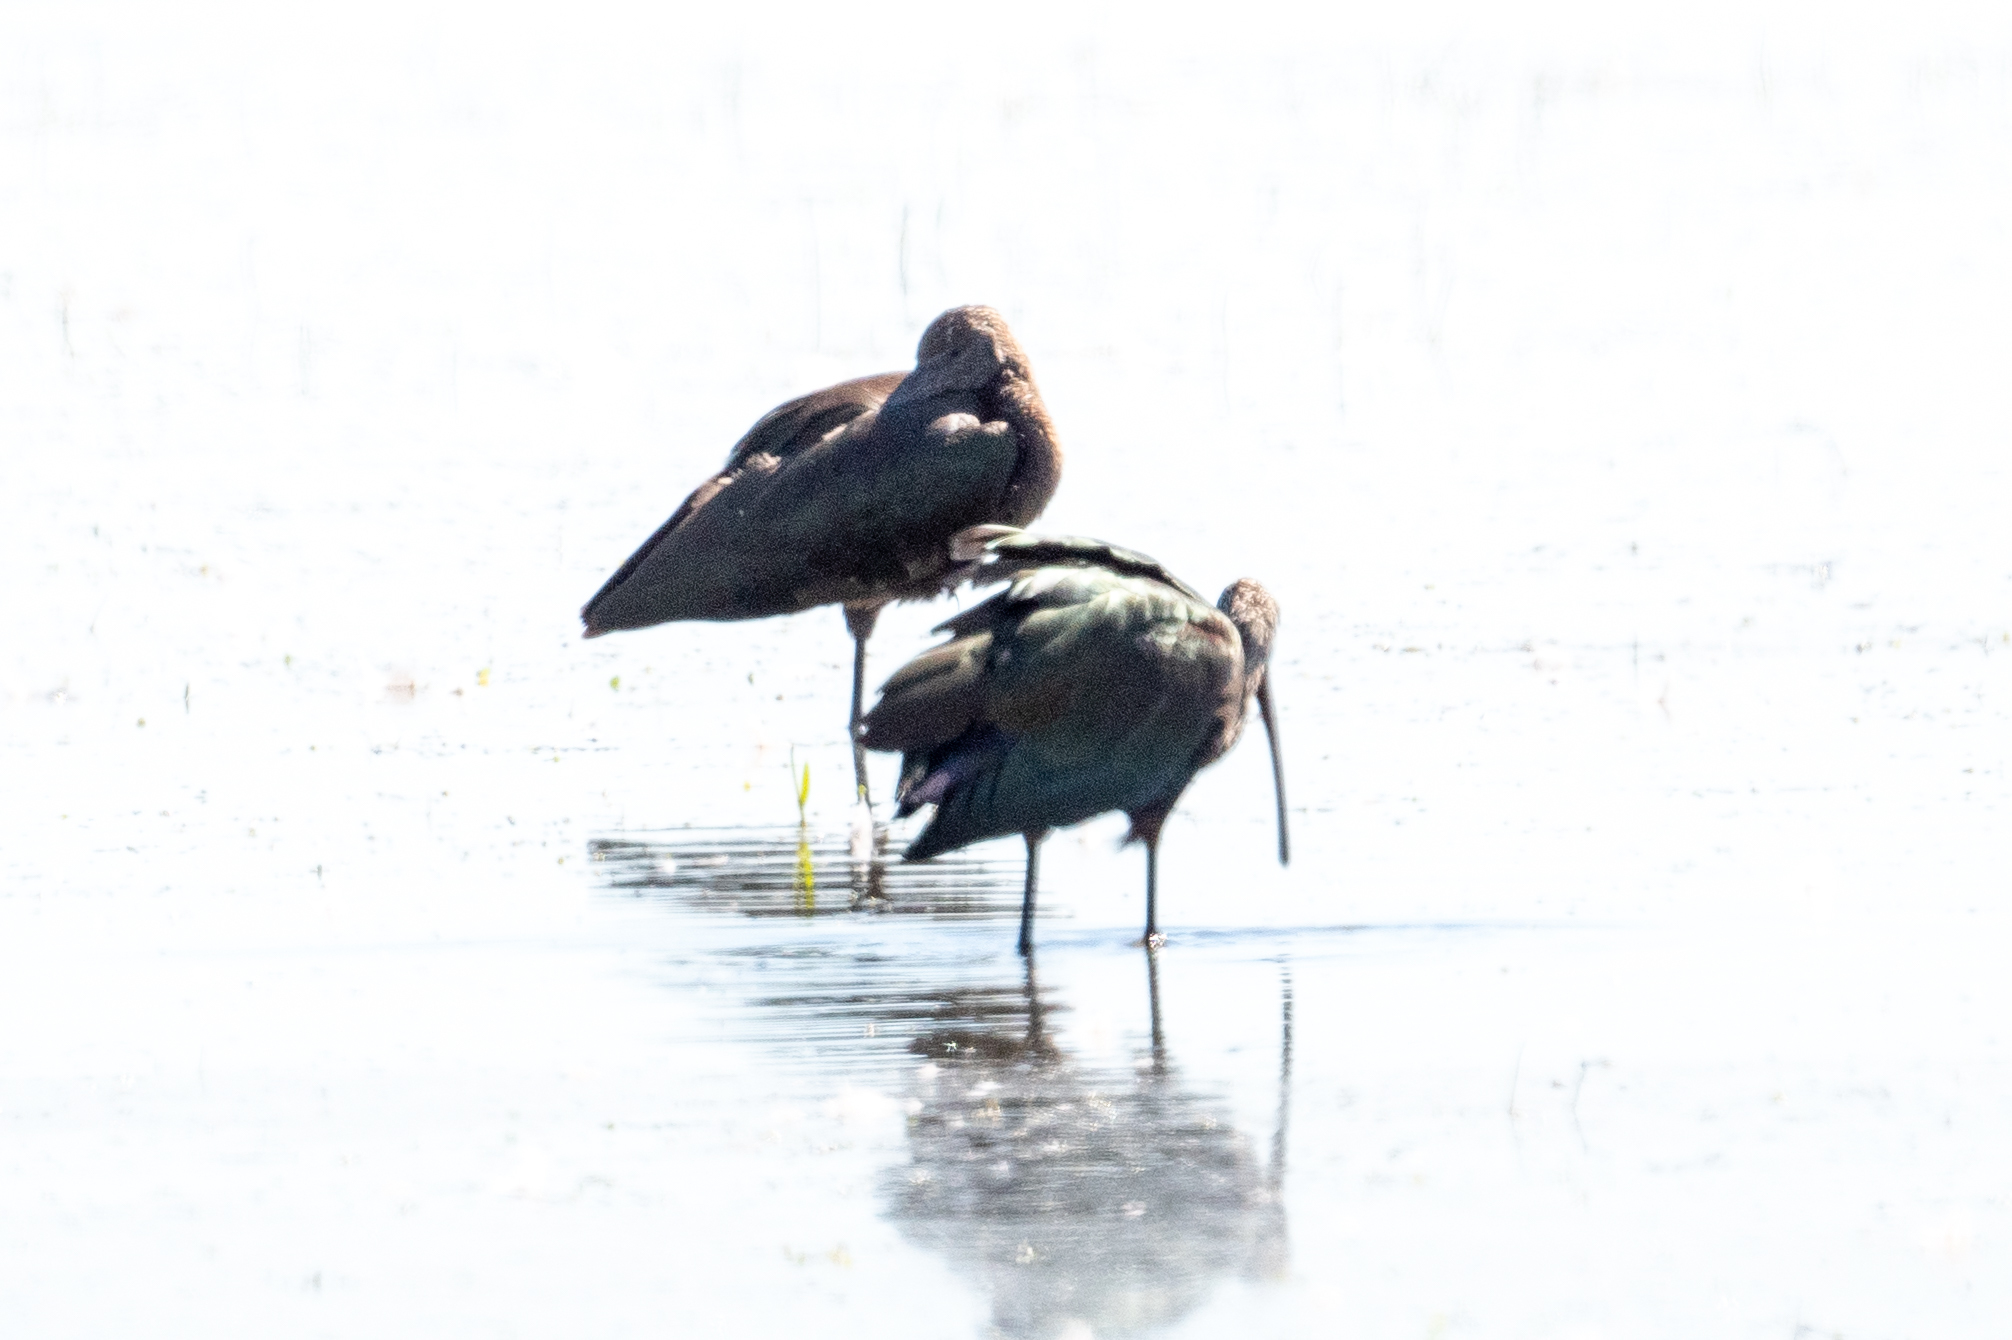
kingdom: Animalia
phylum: Chordata
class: Aves
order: Pelecaniformes
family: Threskiornithidae
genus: Plegadis
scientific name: Plegadis chihi
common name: White-faced ibis
